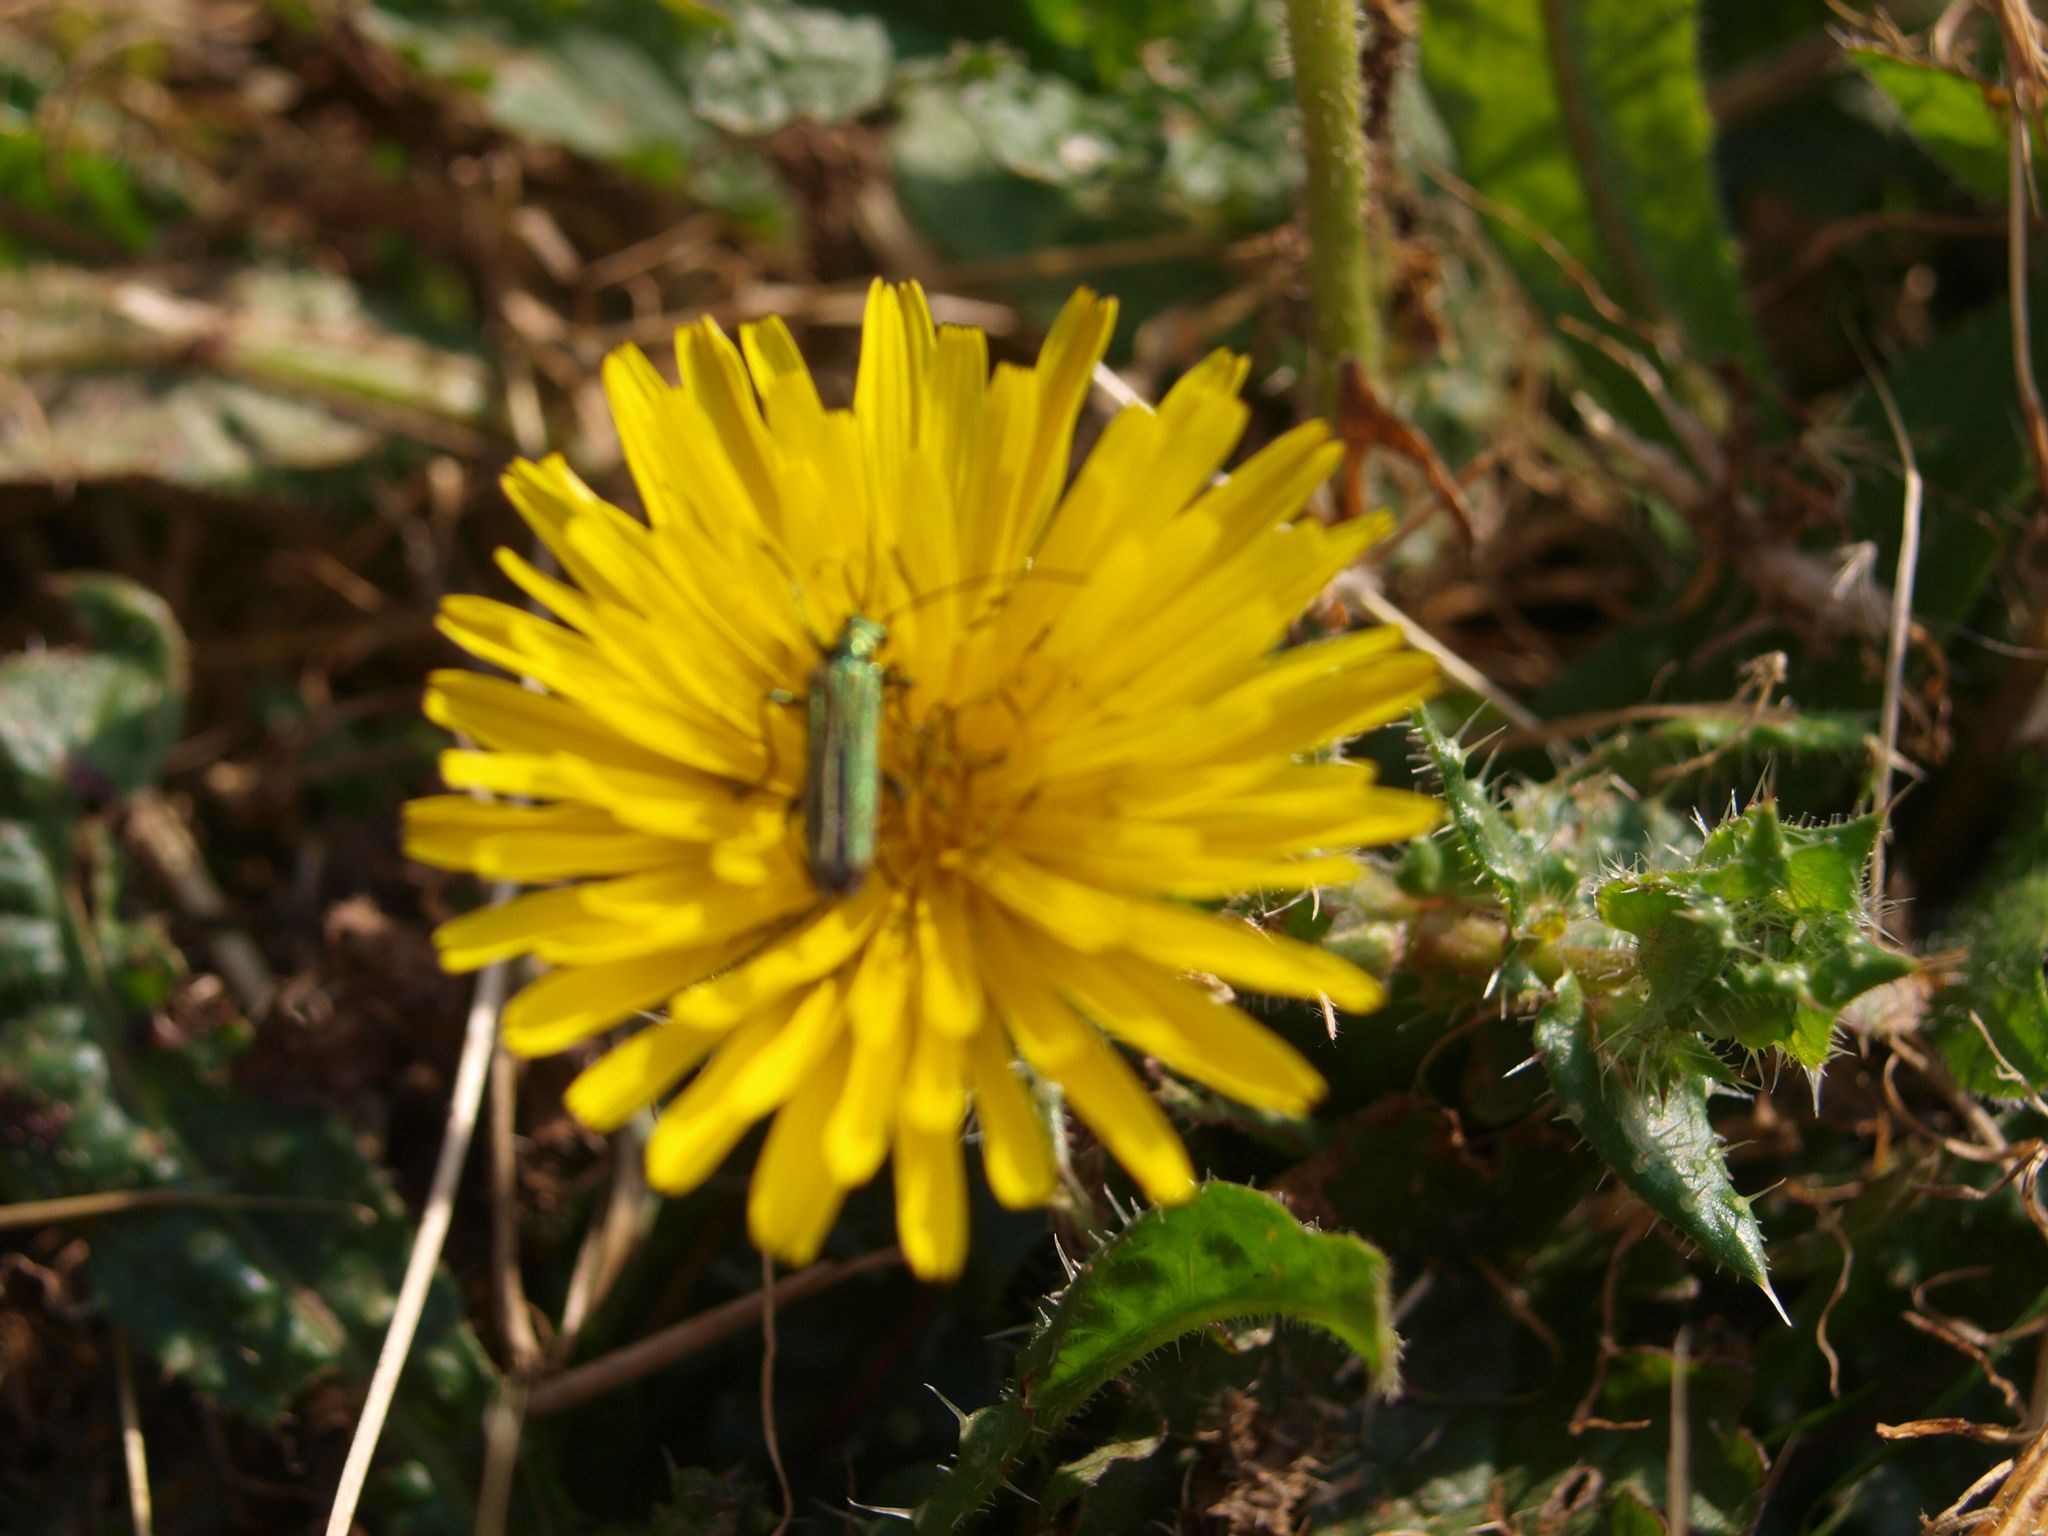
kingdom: Animalia
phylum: Arthropoda
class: Insecta
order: Coleoptera
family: Oedemeridae
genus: Oedemera
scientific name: Oedemera nobilis
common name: Swollen-thighed beetle
